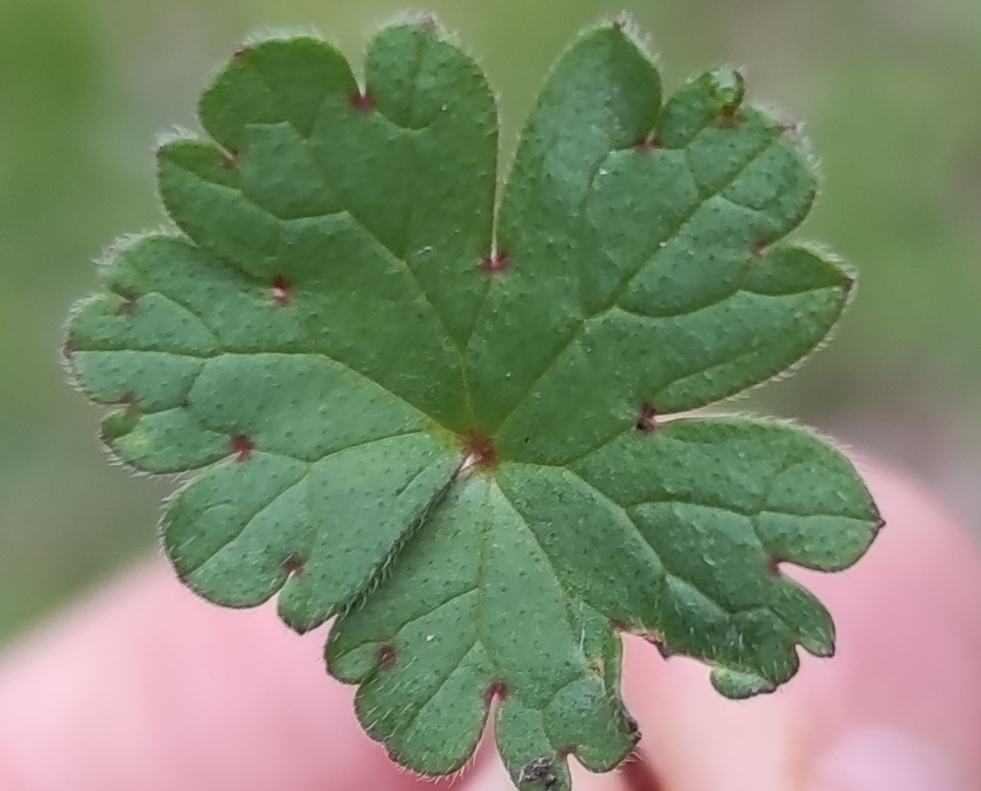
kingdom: Plantae
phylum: Tracheophyta
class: Magnoliopsida
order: Geraniales
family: Geraniaceae
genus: Geranium
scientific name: Geranium rotundifolium
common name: Round-leaved crane's-bill
